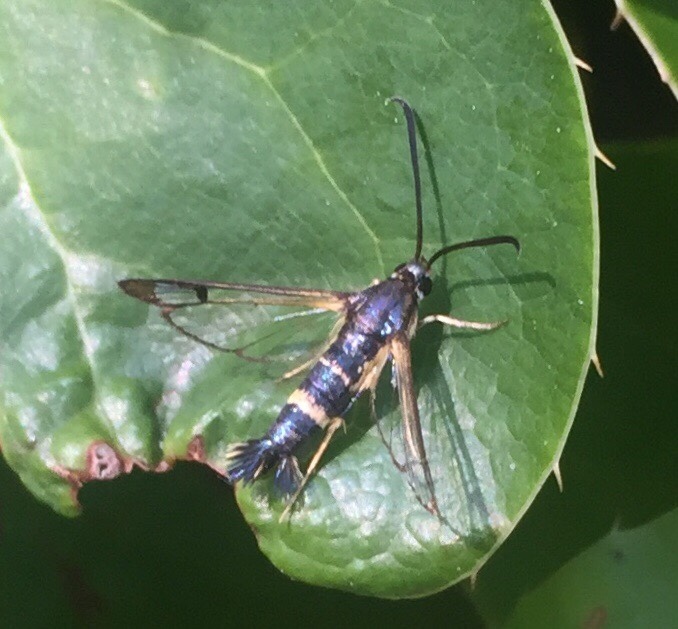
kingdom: Animalia
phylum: Arthropoda
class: Insecta
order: Lepidoptera
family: Sesiidae
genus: Synanthedon
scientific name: Synanthedon scitula
